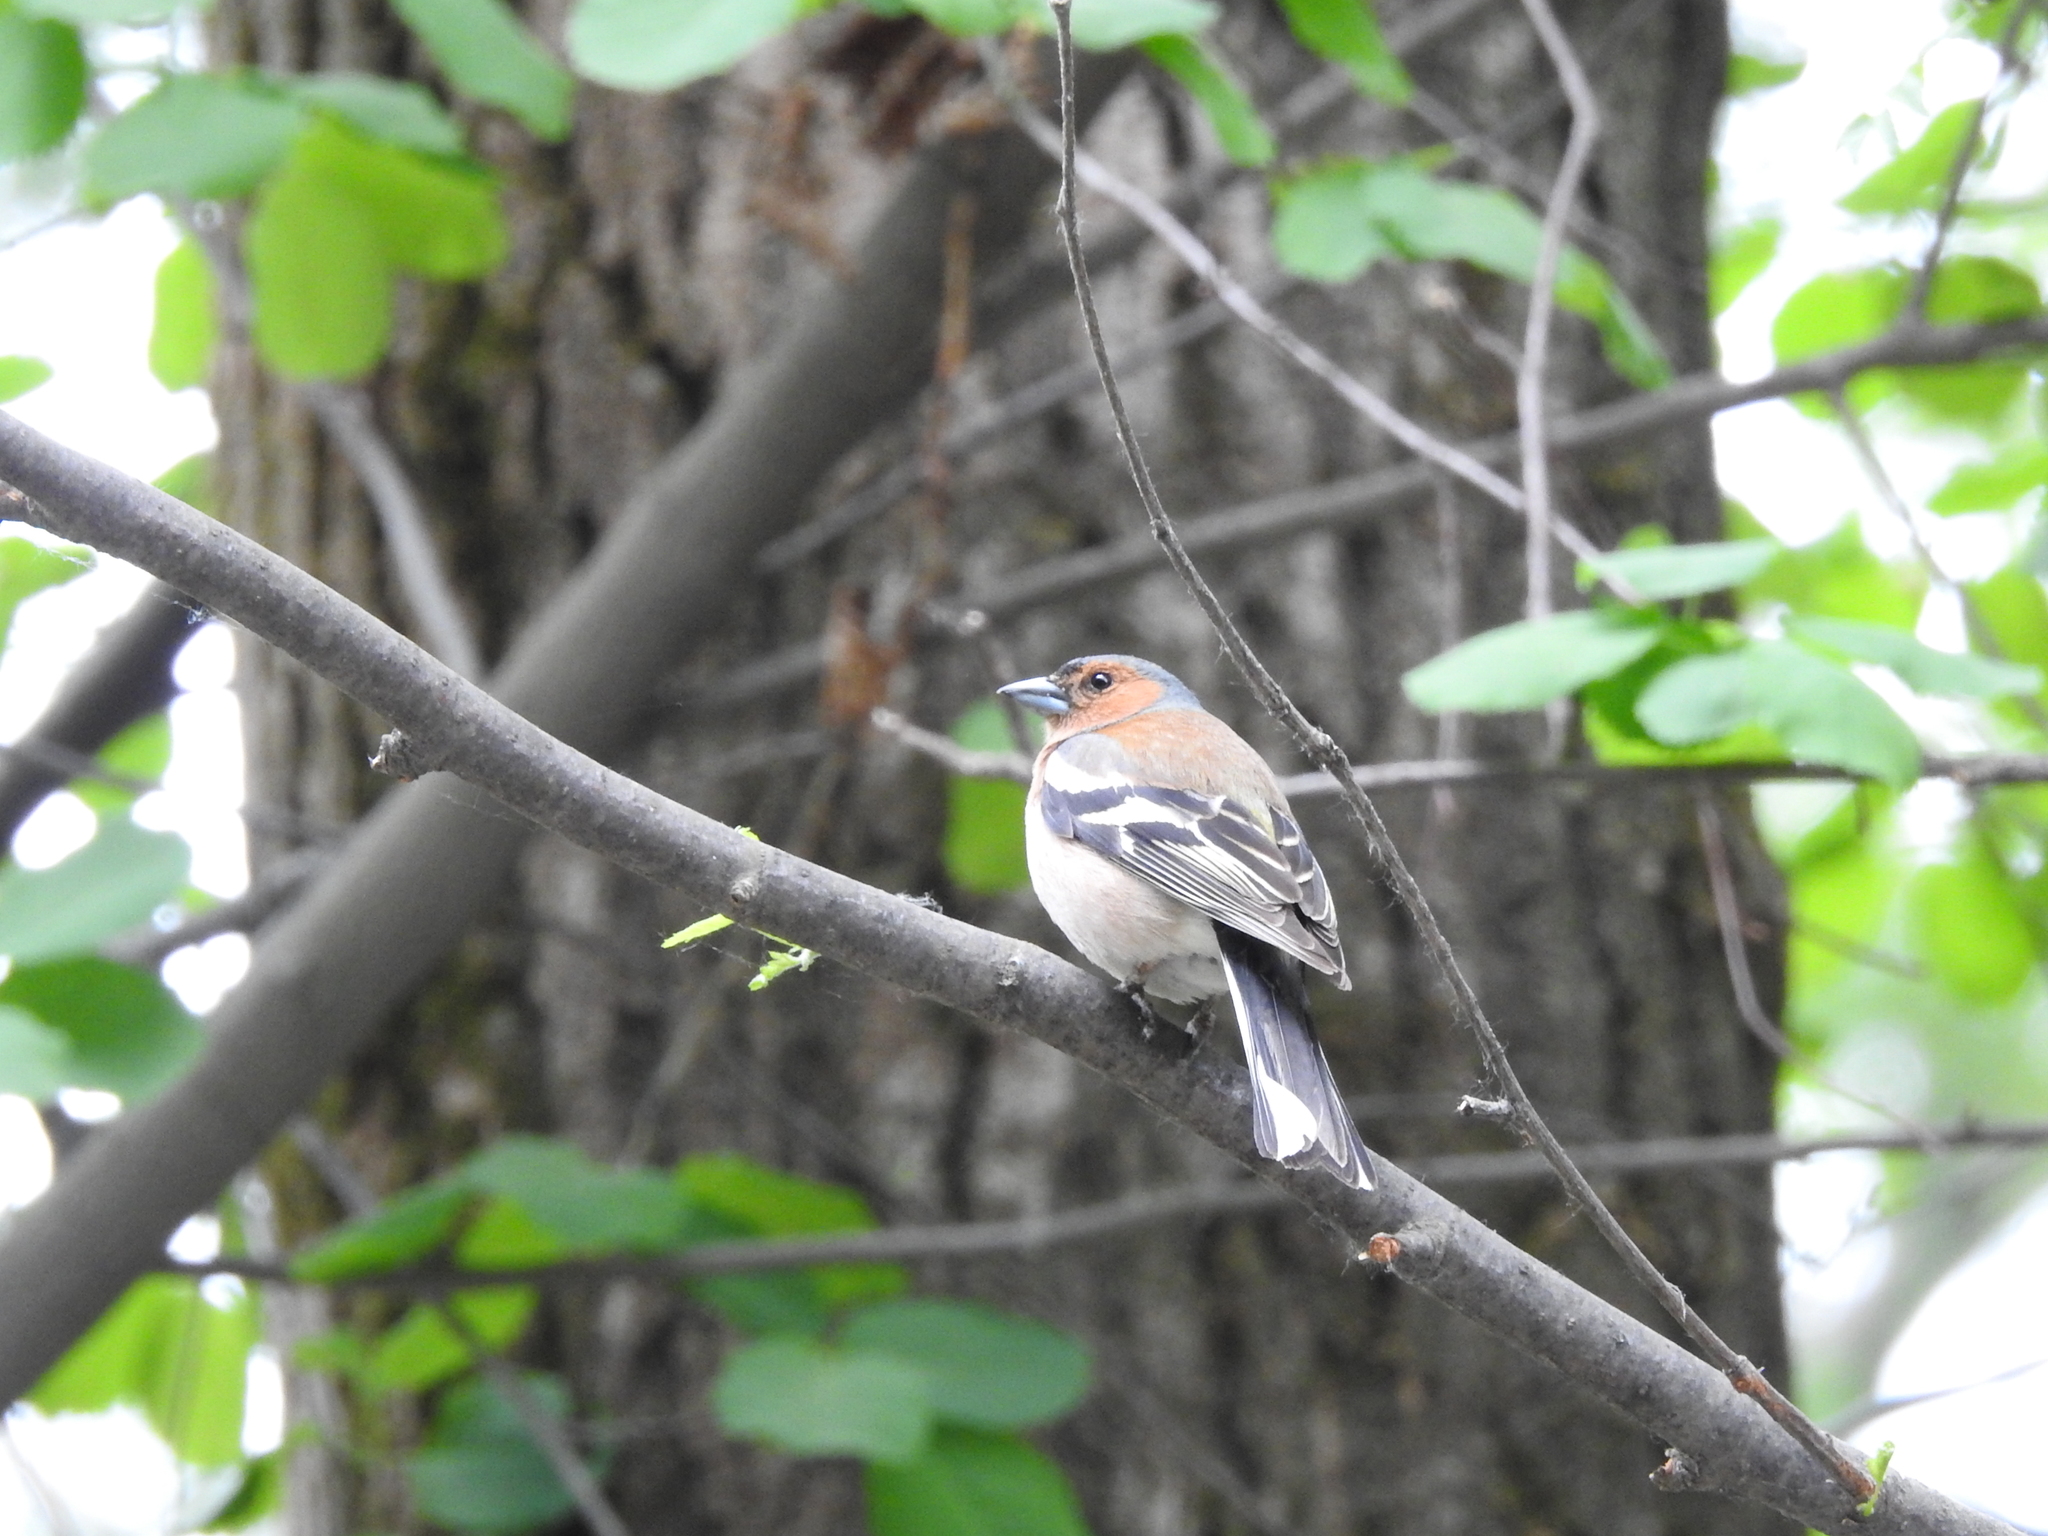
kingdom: Animalia
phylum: Chordata
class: Aves
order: Passeriformes
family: Fringillidae
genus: Fringilla
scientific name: Fringilla coelebs
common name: Common chaffinch
